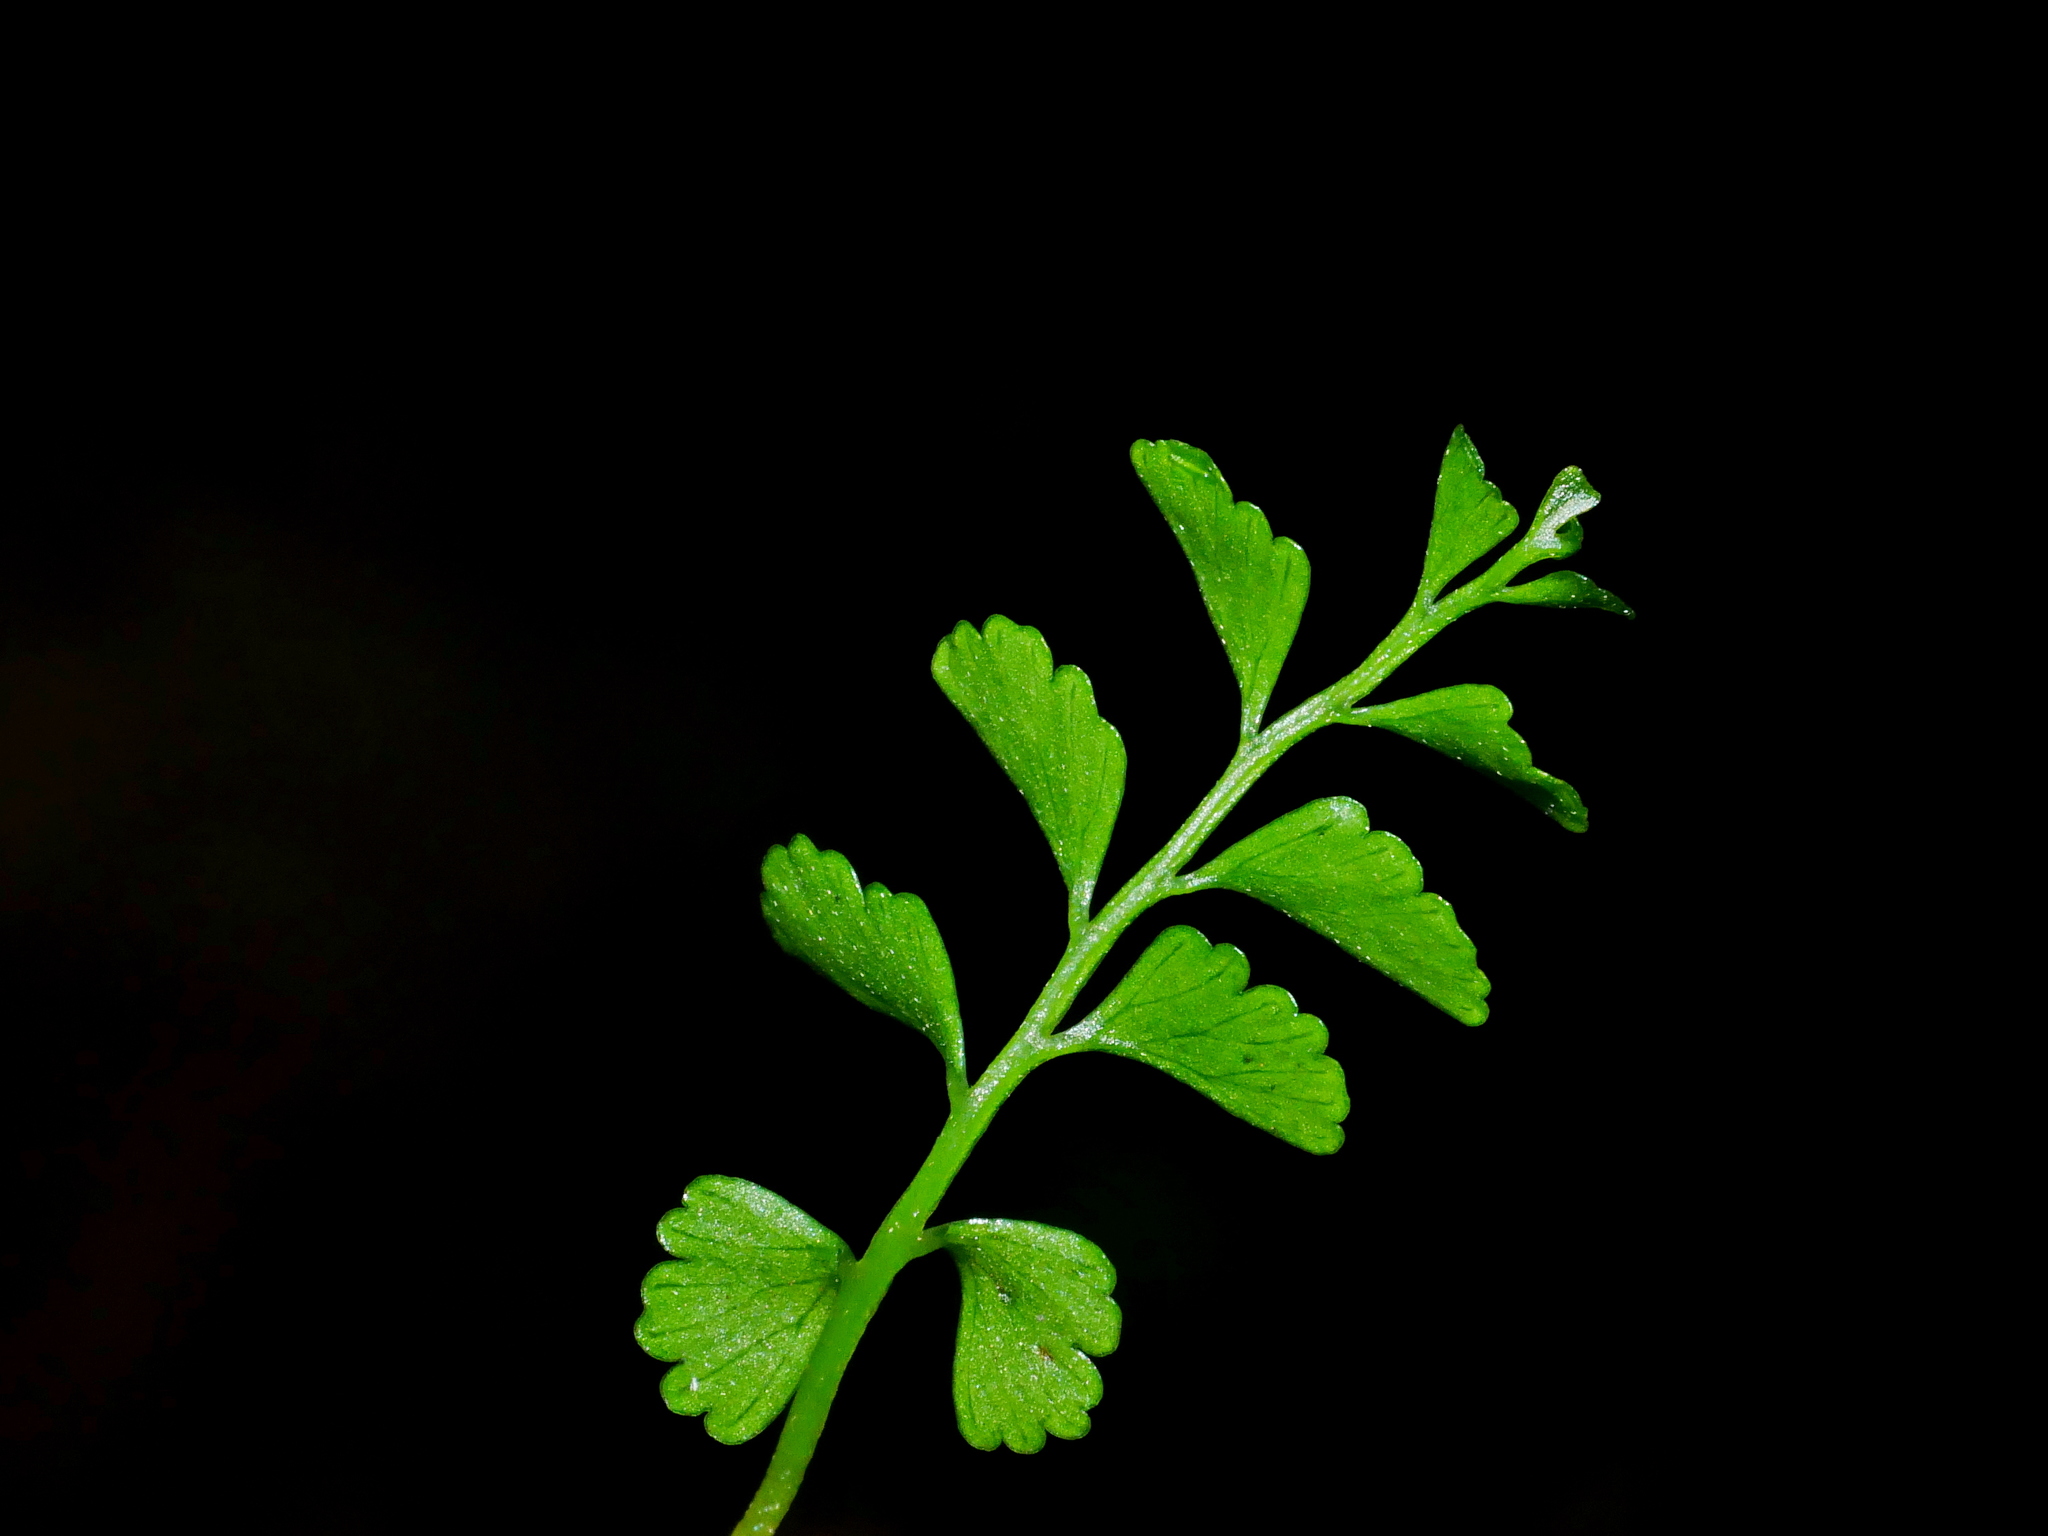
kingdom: Plantae
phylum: Tracheophyta
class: Polypodiopsida
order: Polypodiales
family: Lindsaeaceae
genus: Osmolindsaea
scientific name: Osmolindsaea japonica
